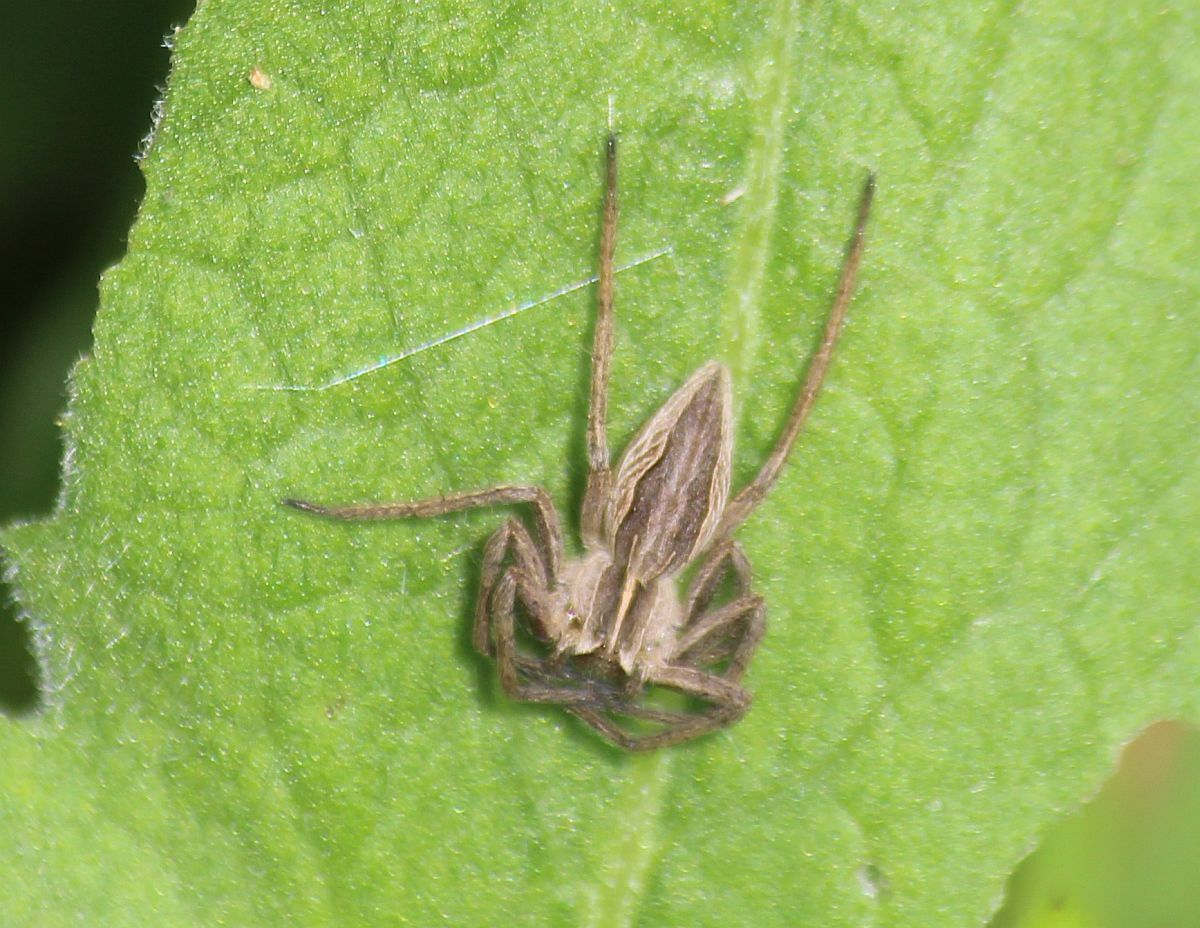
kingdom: Animalia
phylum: Arthropoda
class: Arachnida
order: Araneae
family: Pisauridae
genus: Pisaura
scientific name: Pisaura mirabilis
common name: Tent spider
